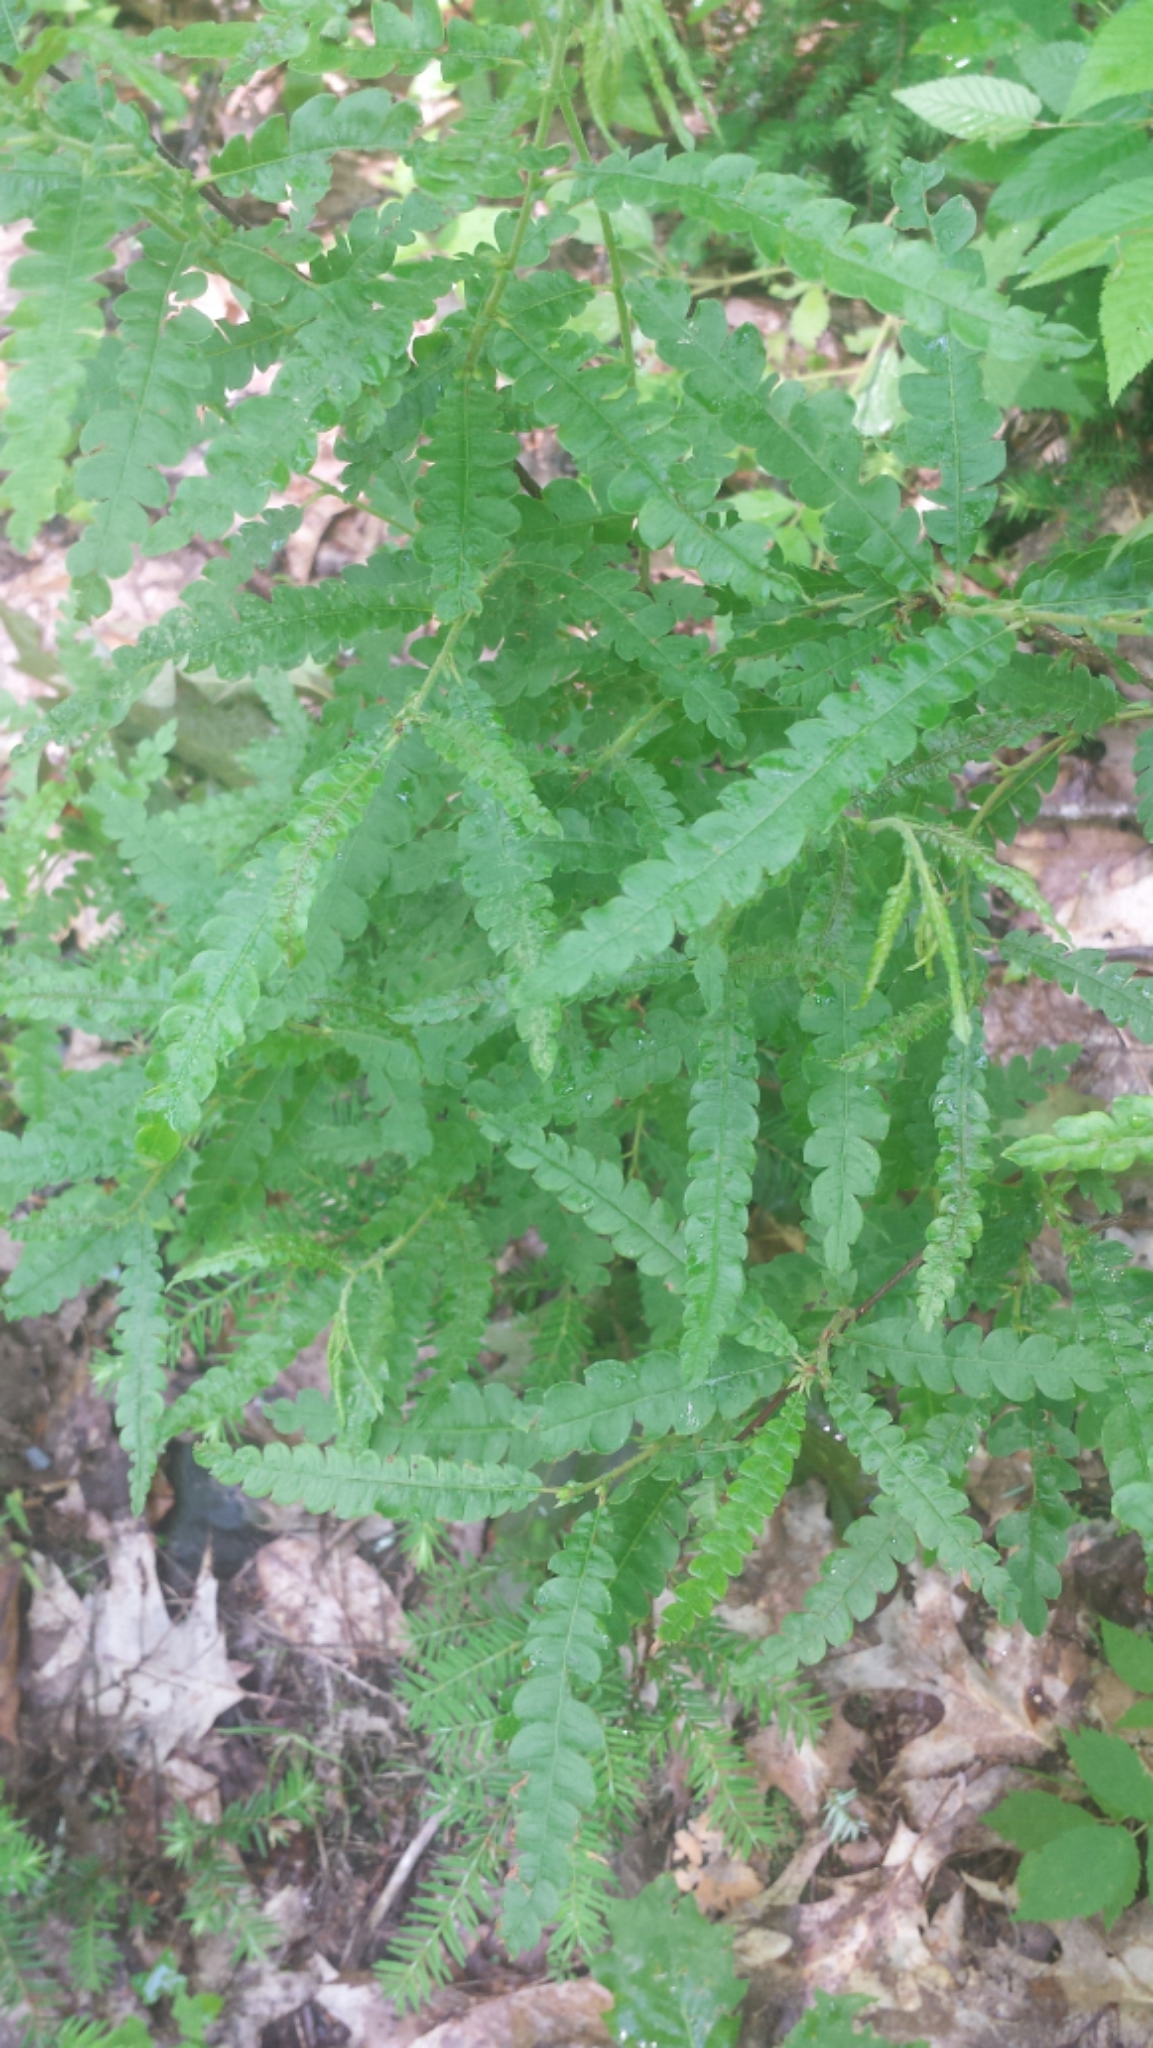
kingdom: Plantae
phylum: Tracheophyta
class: Magnoliopsida
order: Fagales
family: Myricaceae
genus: Comptonia
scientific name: Comptonia peregrina
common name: Sweet-fern
